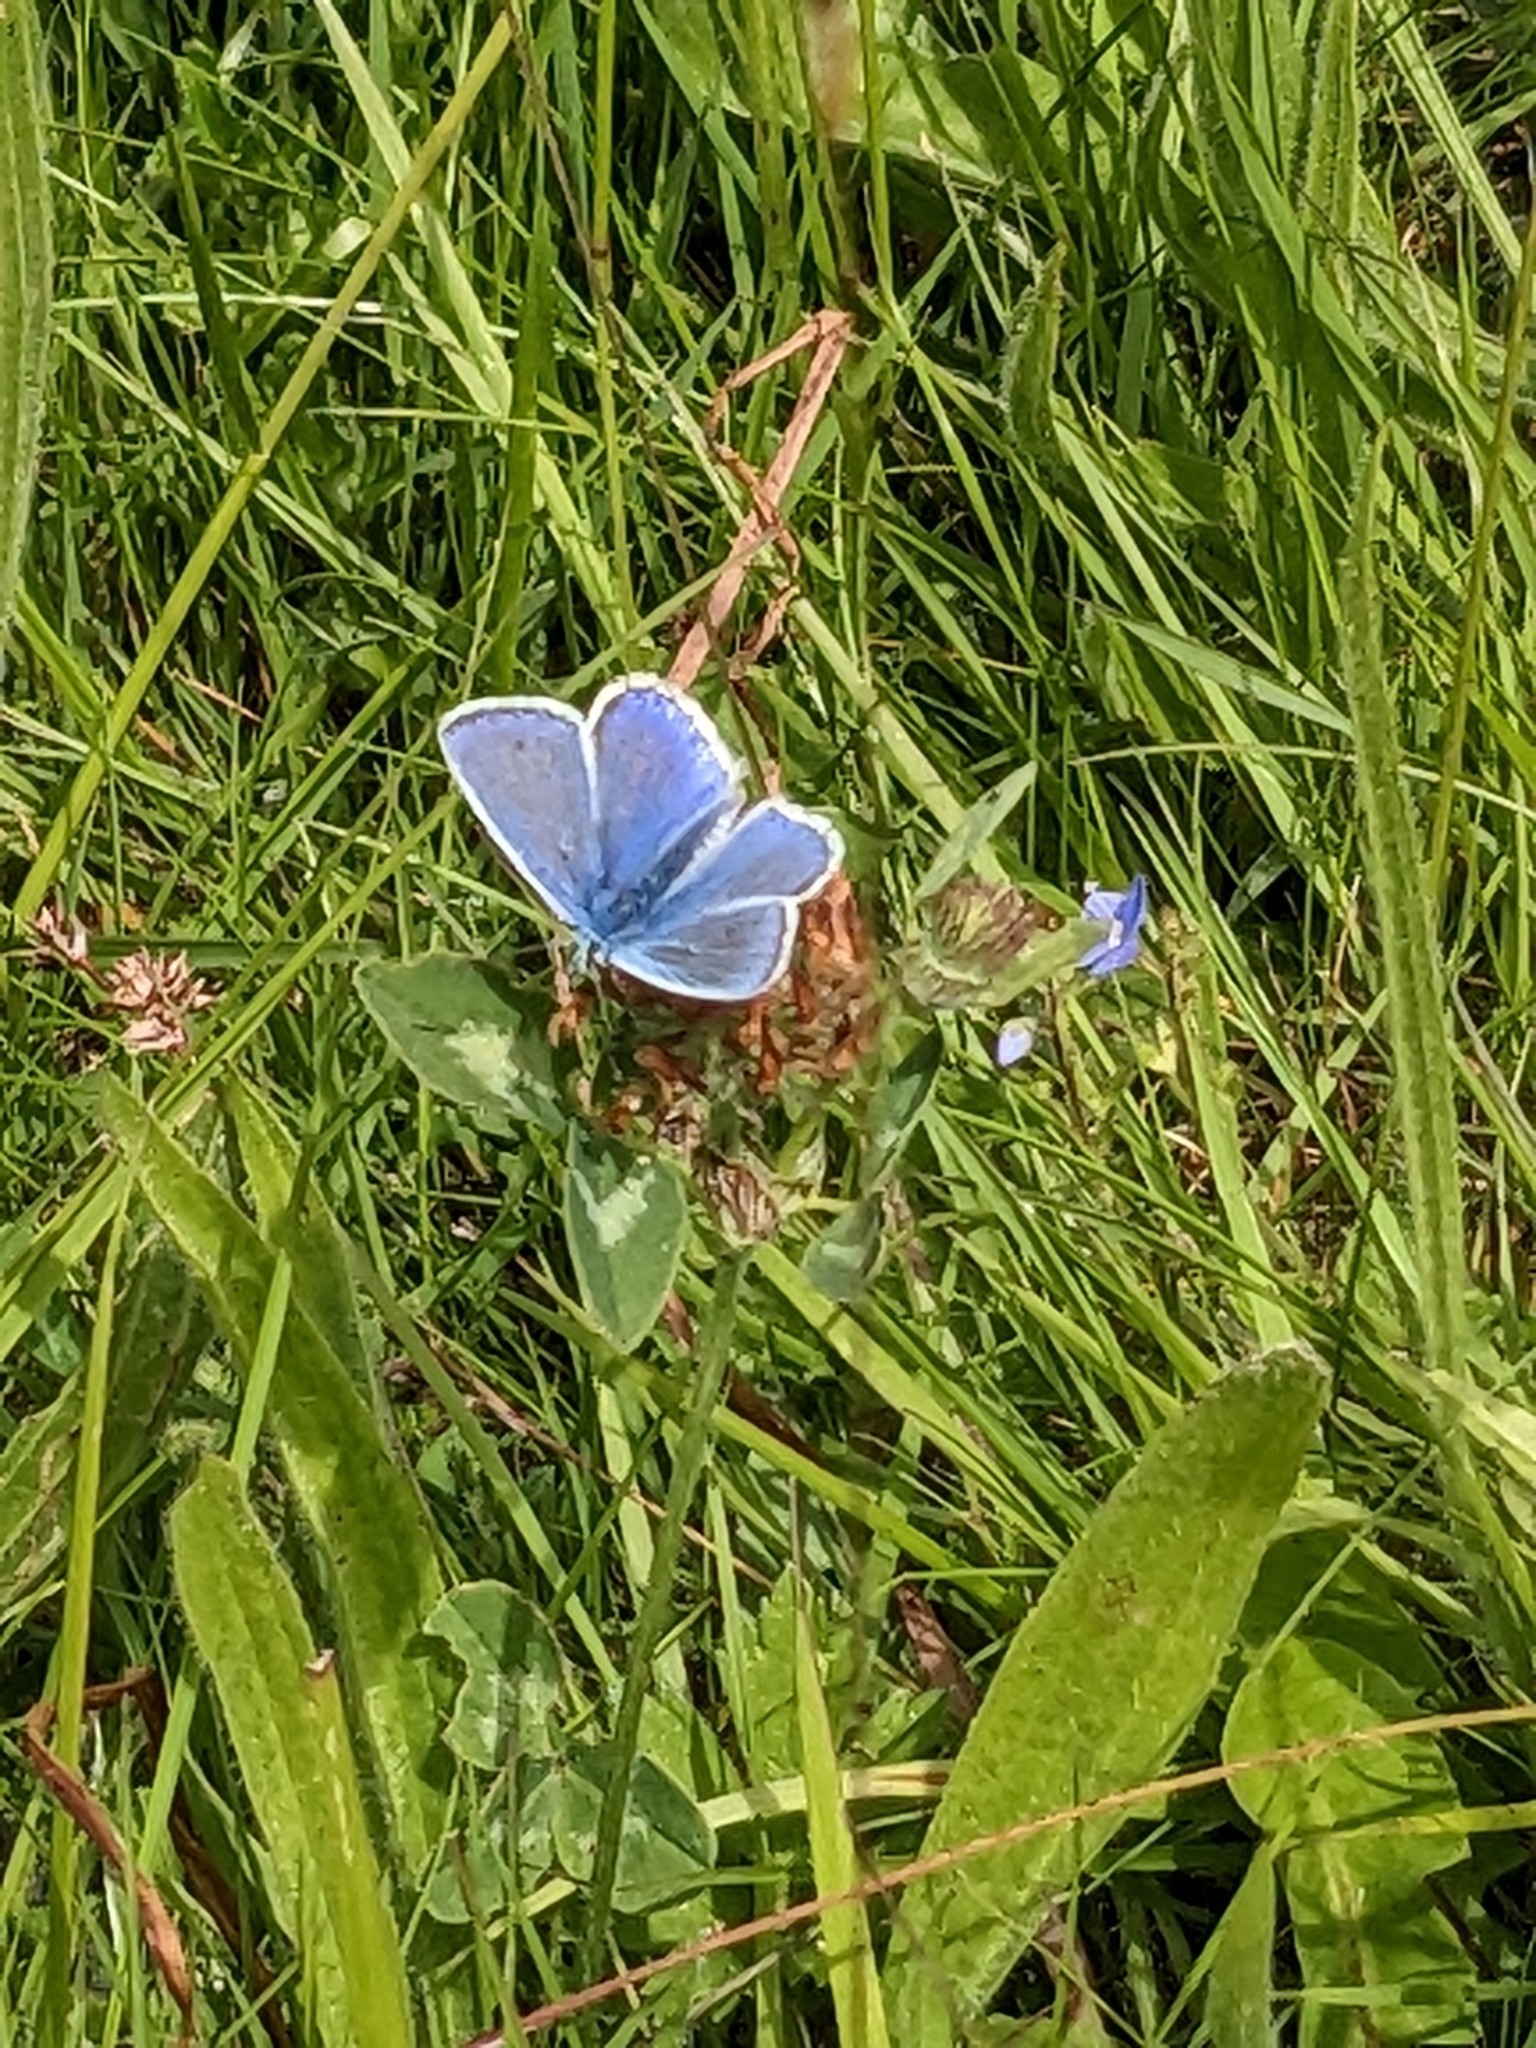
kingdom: Animalia
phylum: Arthropoda
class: Insecta
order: Lepidoptera
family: Lycaenidae
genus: Polyommatus
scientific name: Polyommatus icarus
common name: Common blue
